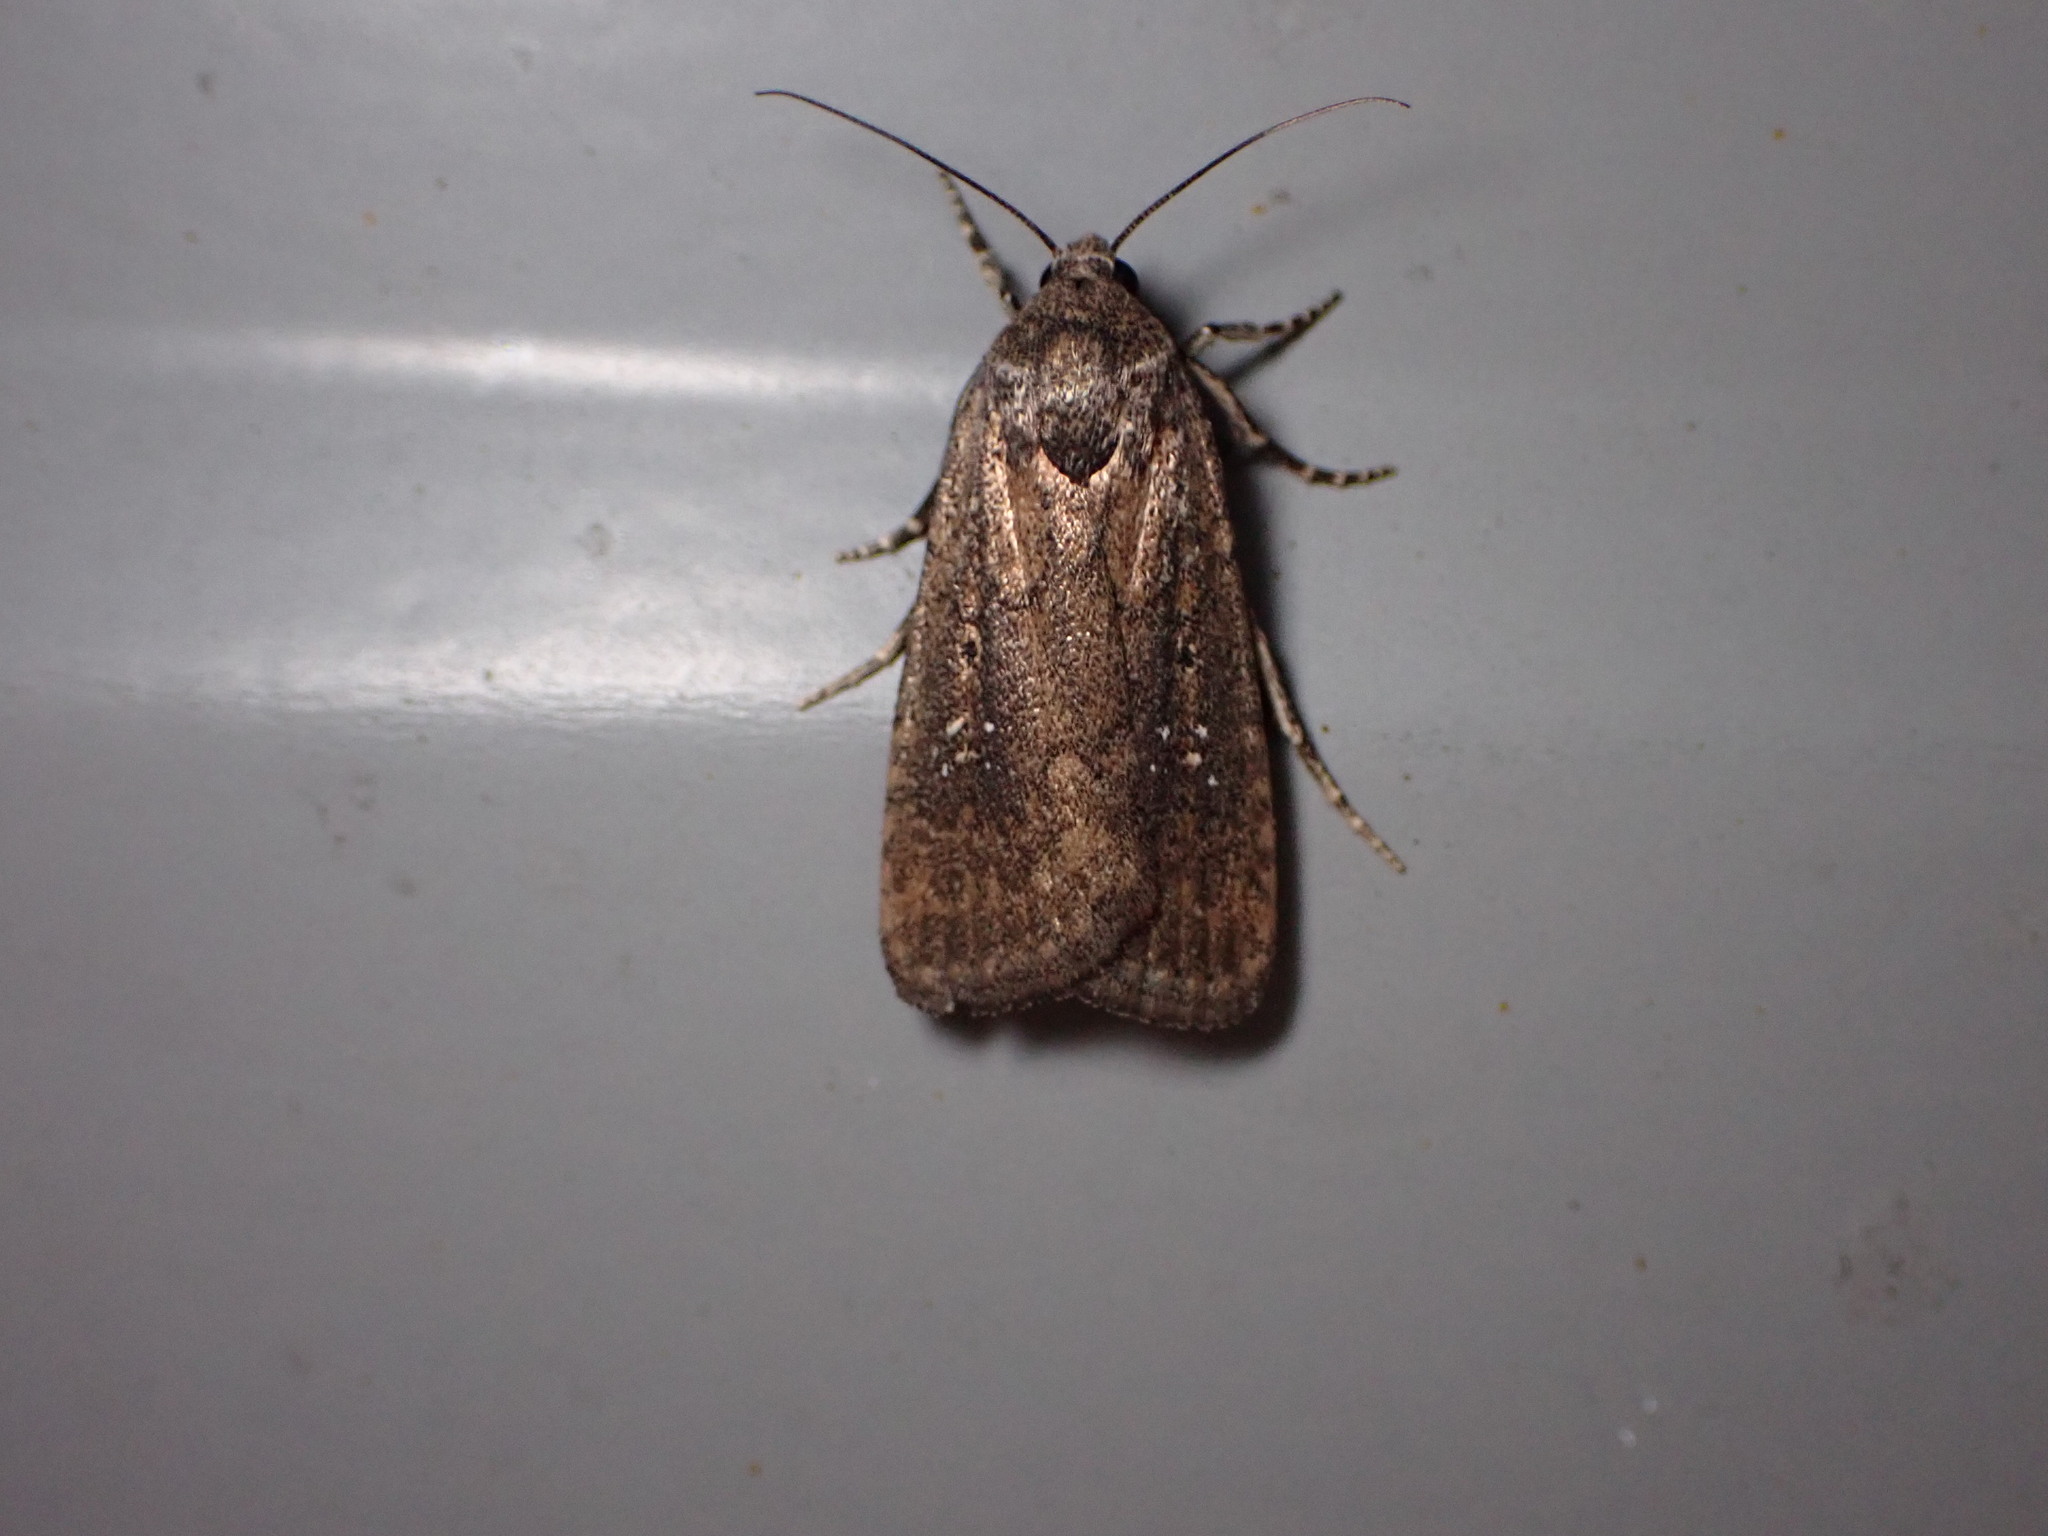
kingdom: Animalia
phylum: Arthropoda
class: Insecta
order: Lepidoptera
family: Noctuidae
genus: Athetis
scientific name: Athetis tenuis
